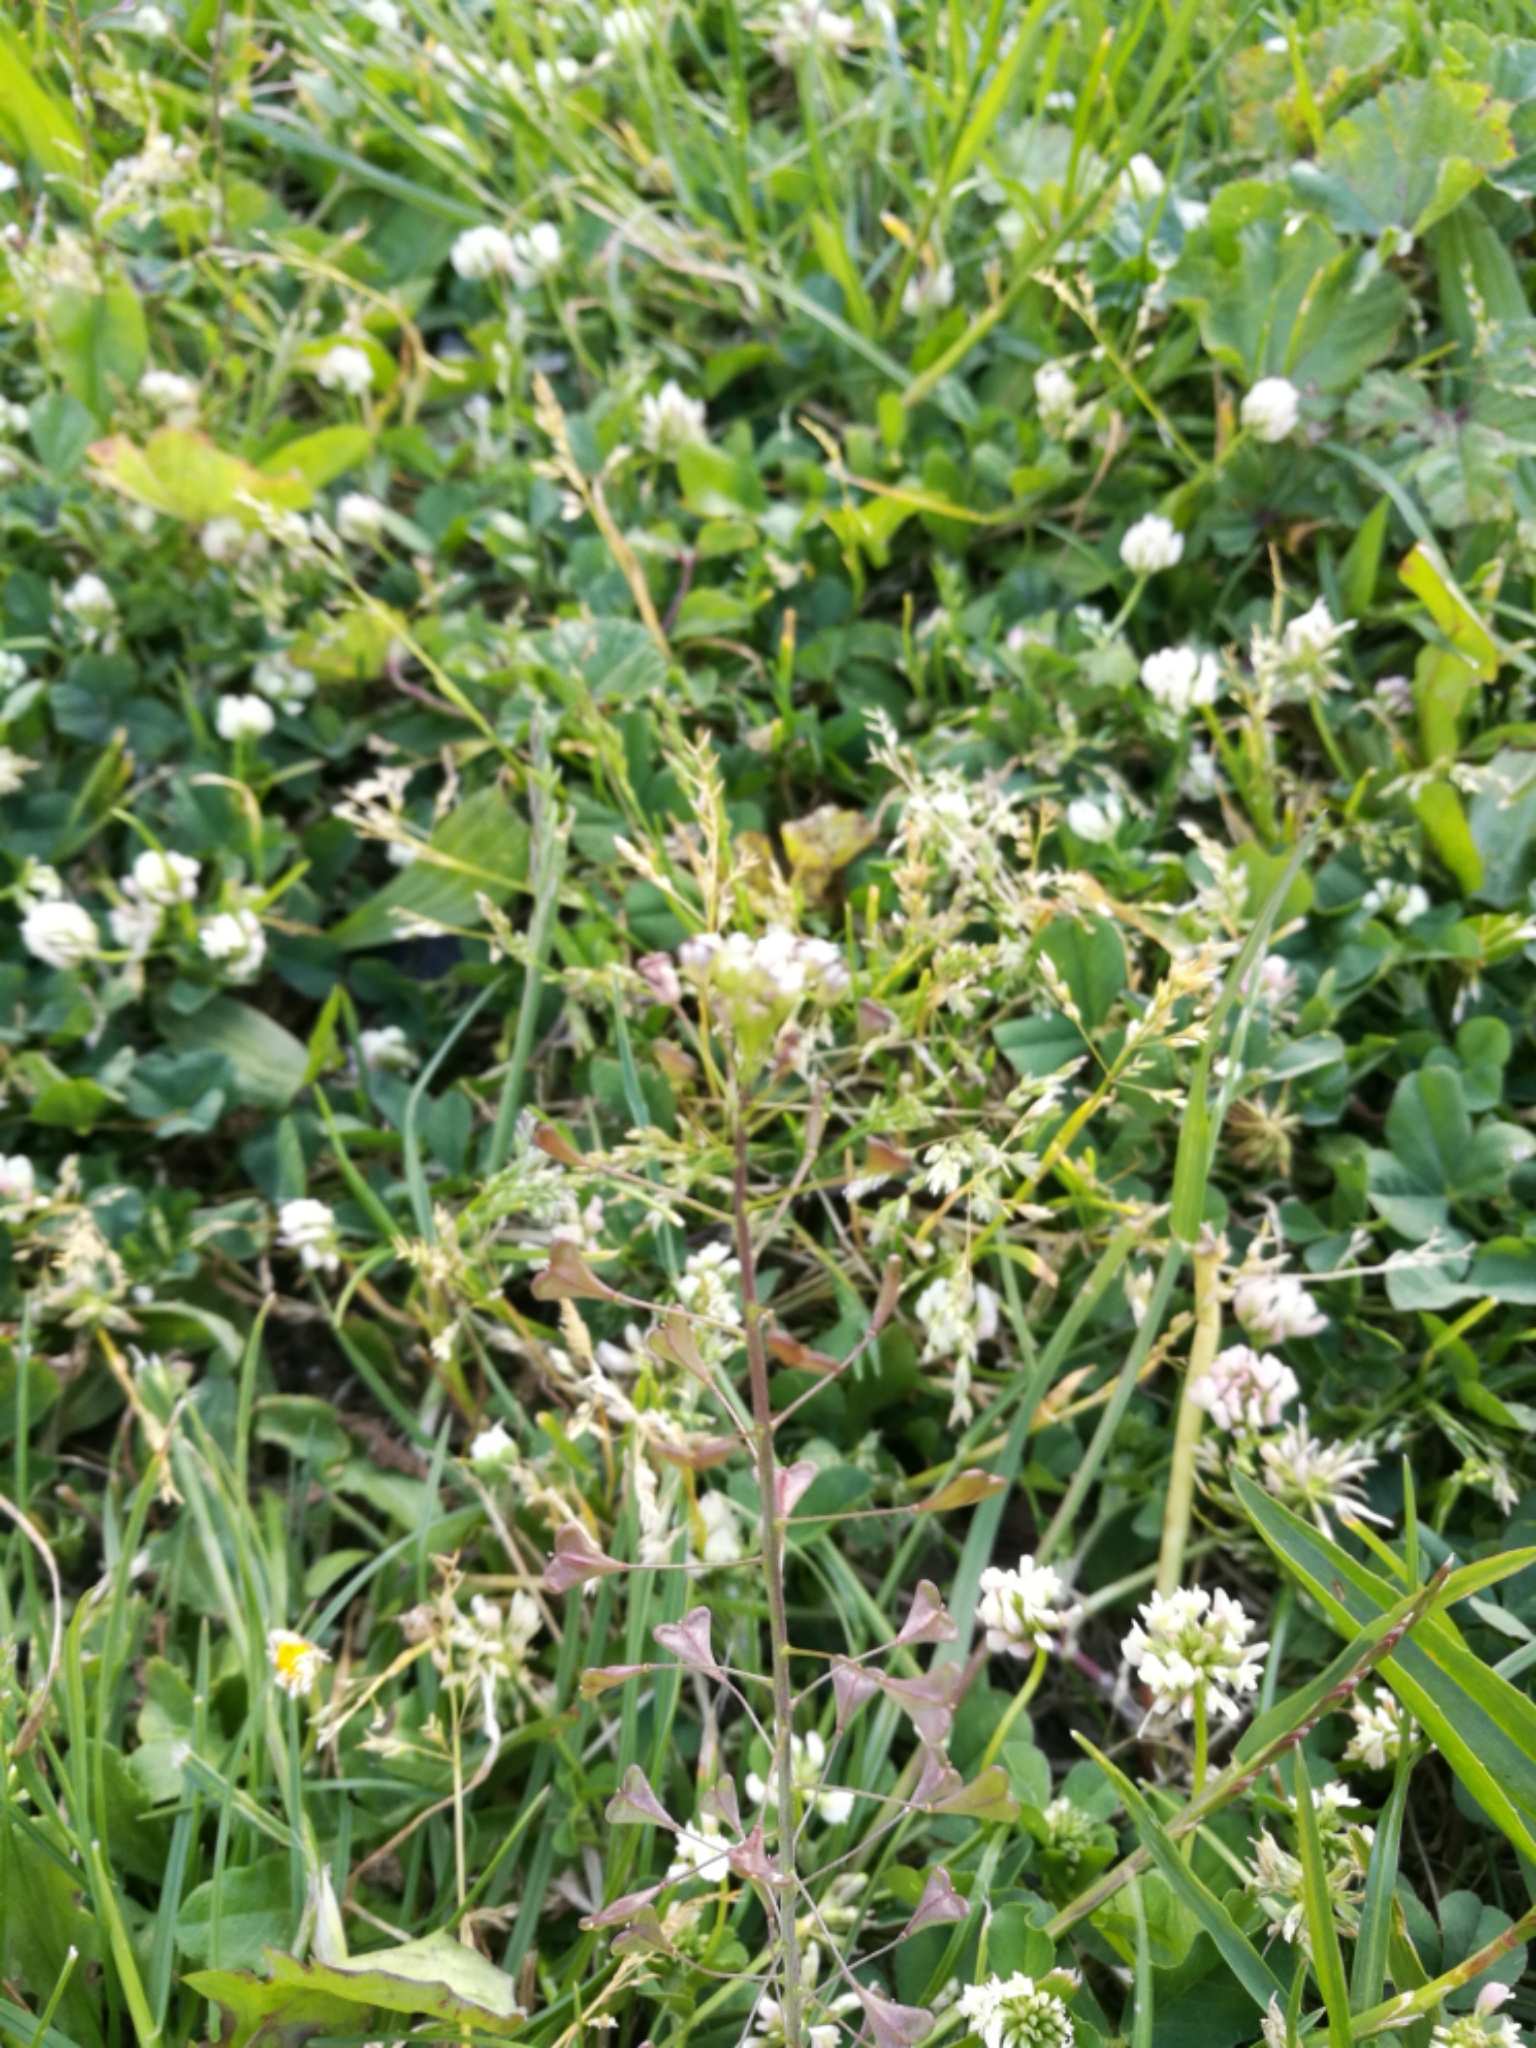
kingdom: Plantae
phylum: Tracheophyta
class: Magnoliopsida
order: Brassicales
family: Brassicaceae
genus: Capsella
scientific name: Capsella rubella
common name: Pink shepherd's-purse
